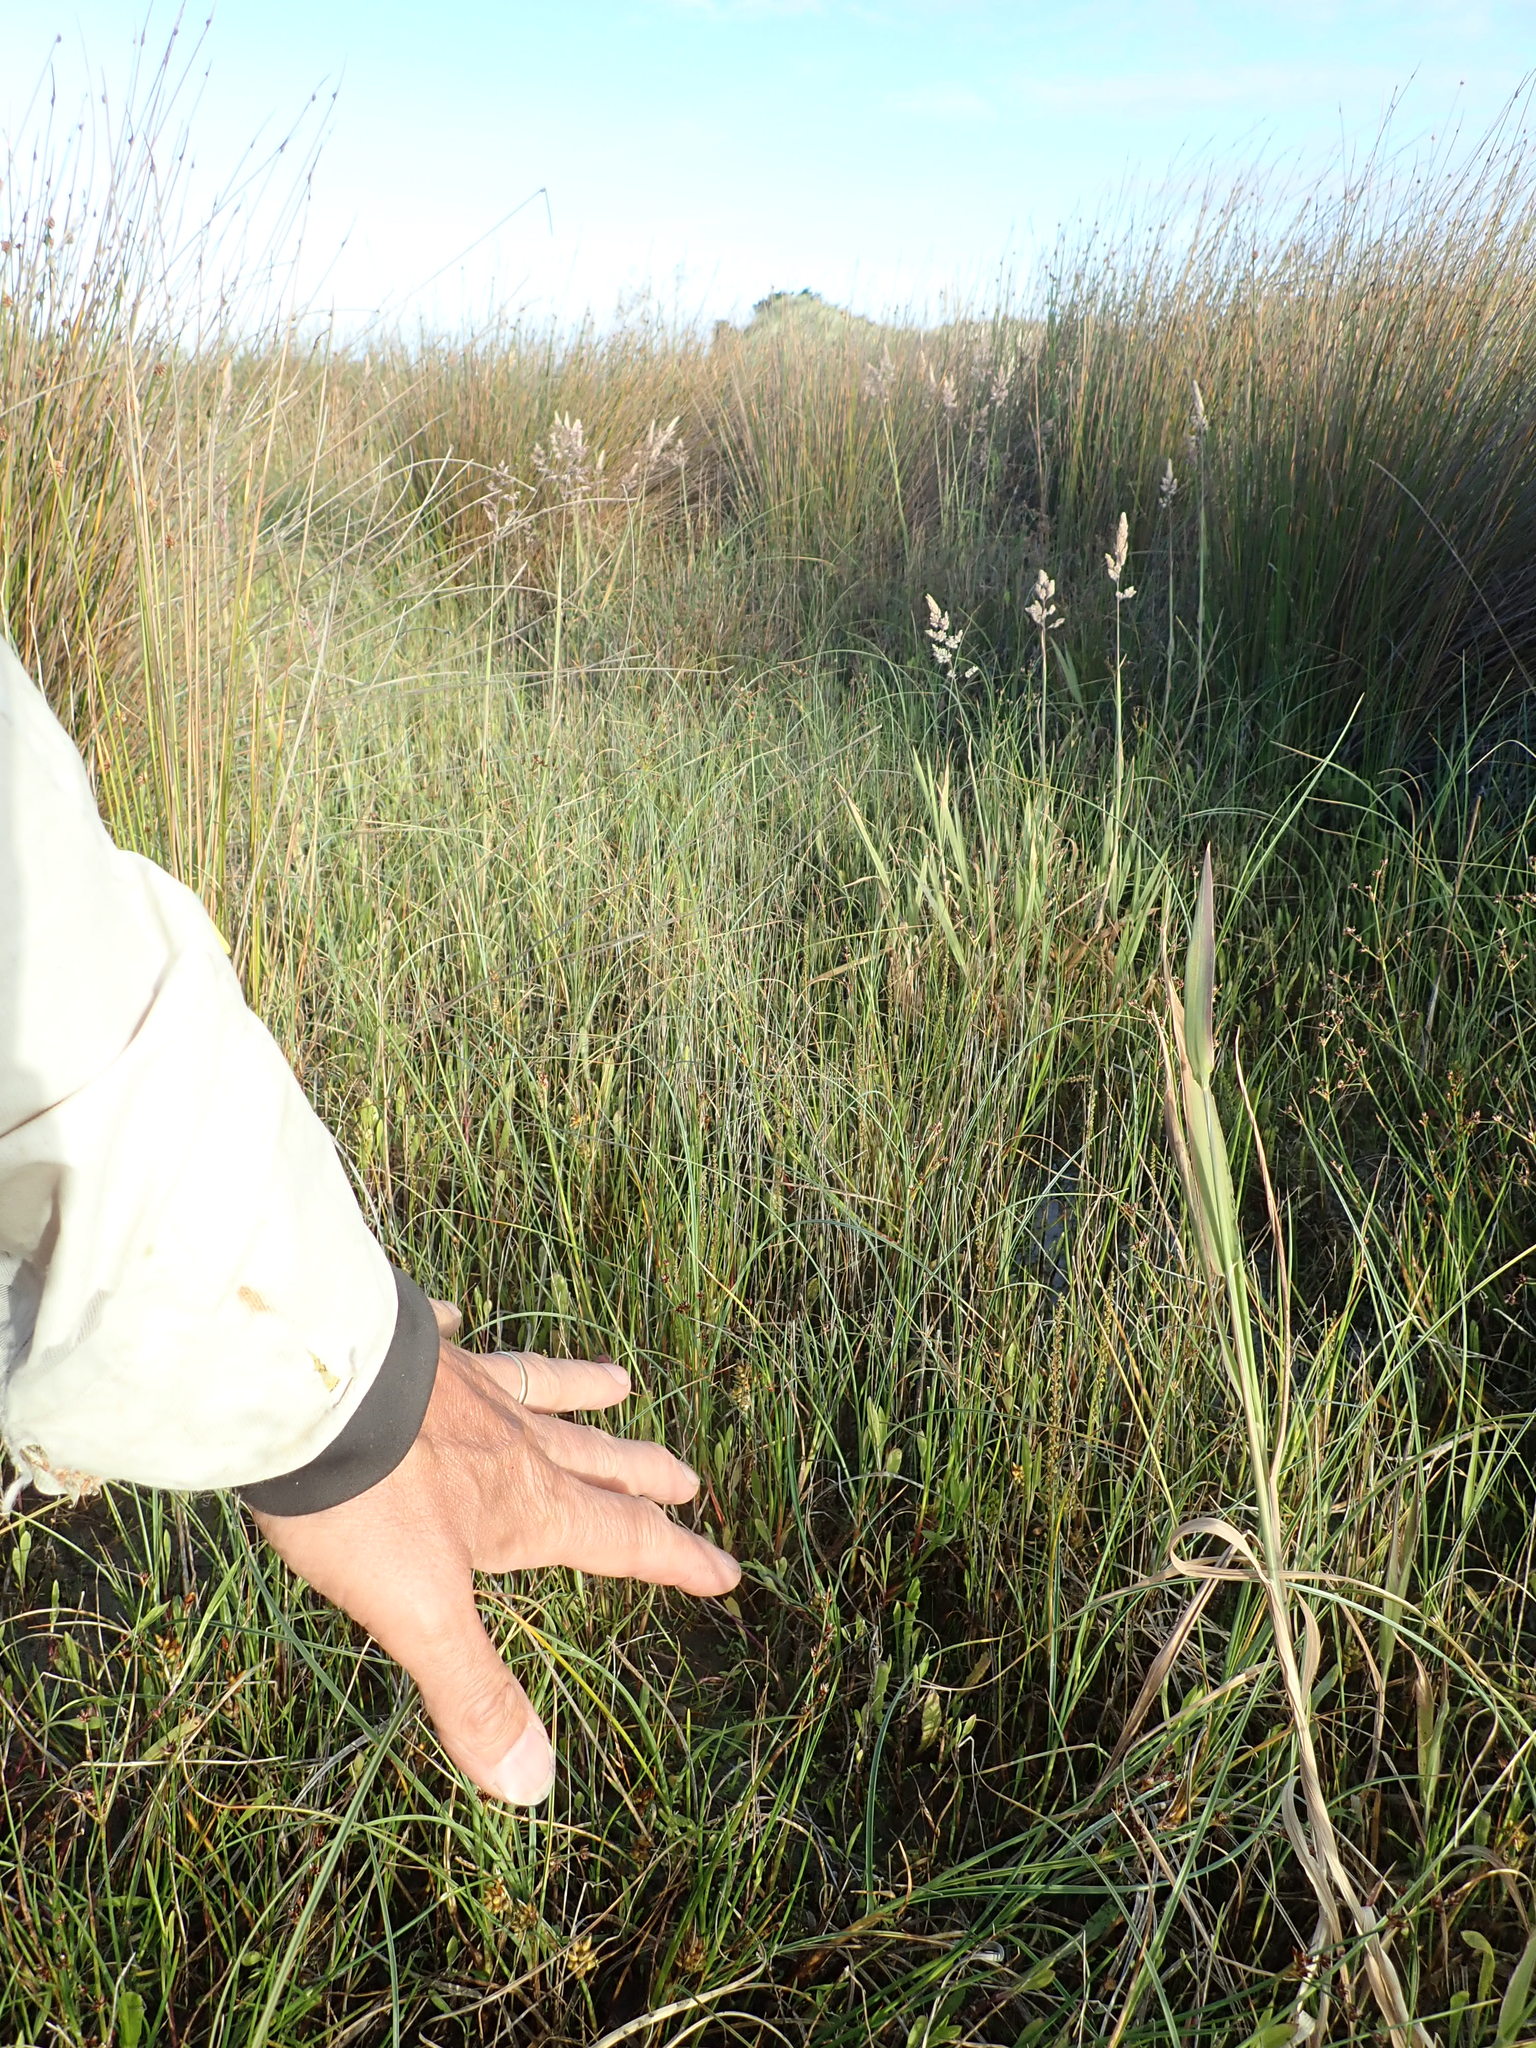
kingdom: Plantae
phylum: Tracheophyta
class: Liliopsida
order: Alismatales
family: Juncaginaceae
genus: Triglochin
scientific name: Triglochin striata
